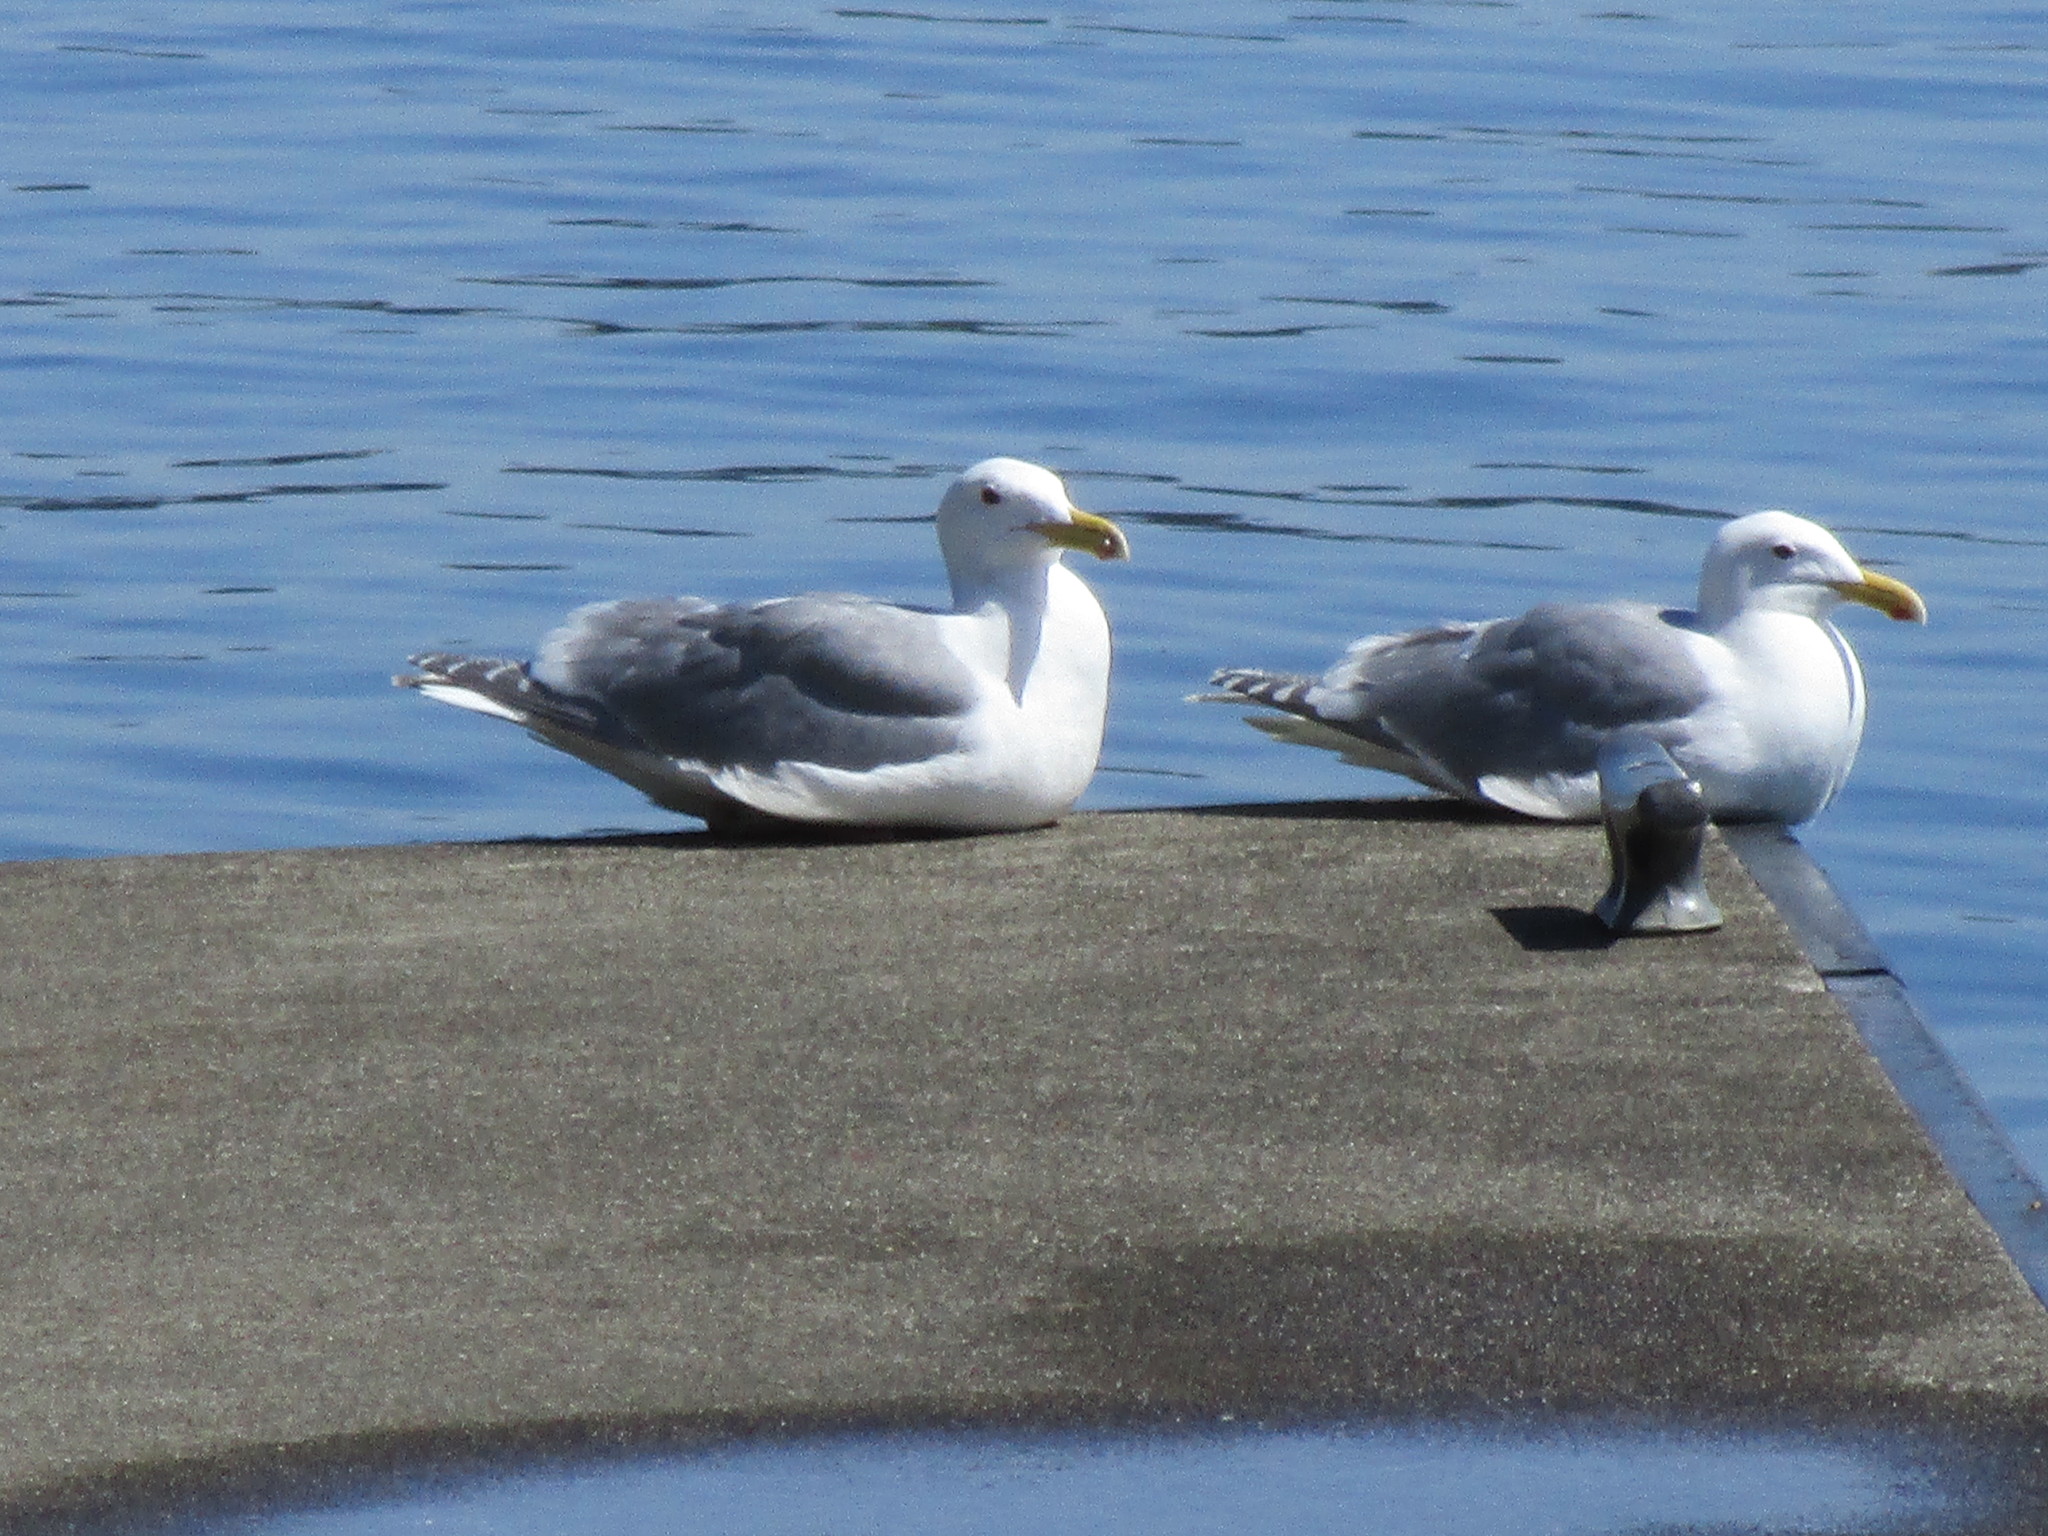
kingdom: Animalia
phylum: Chordata
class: Aves
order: Charadriiformes
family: Laridae
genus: Larus
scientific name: Larus
